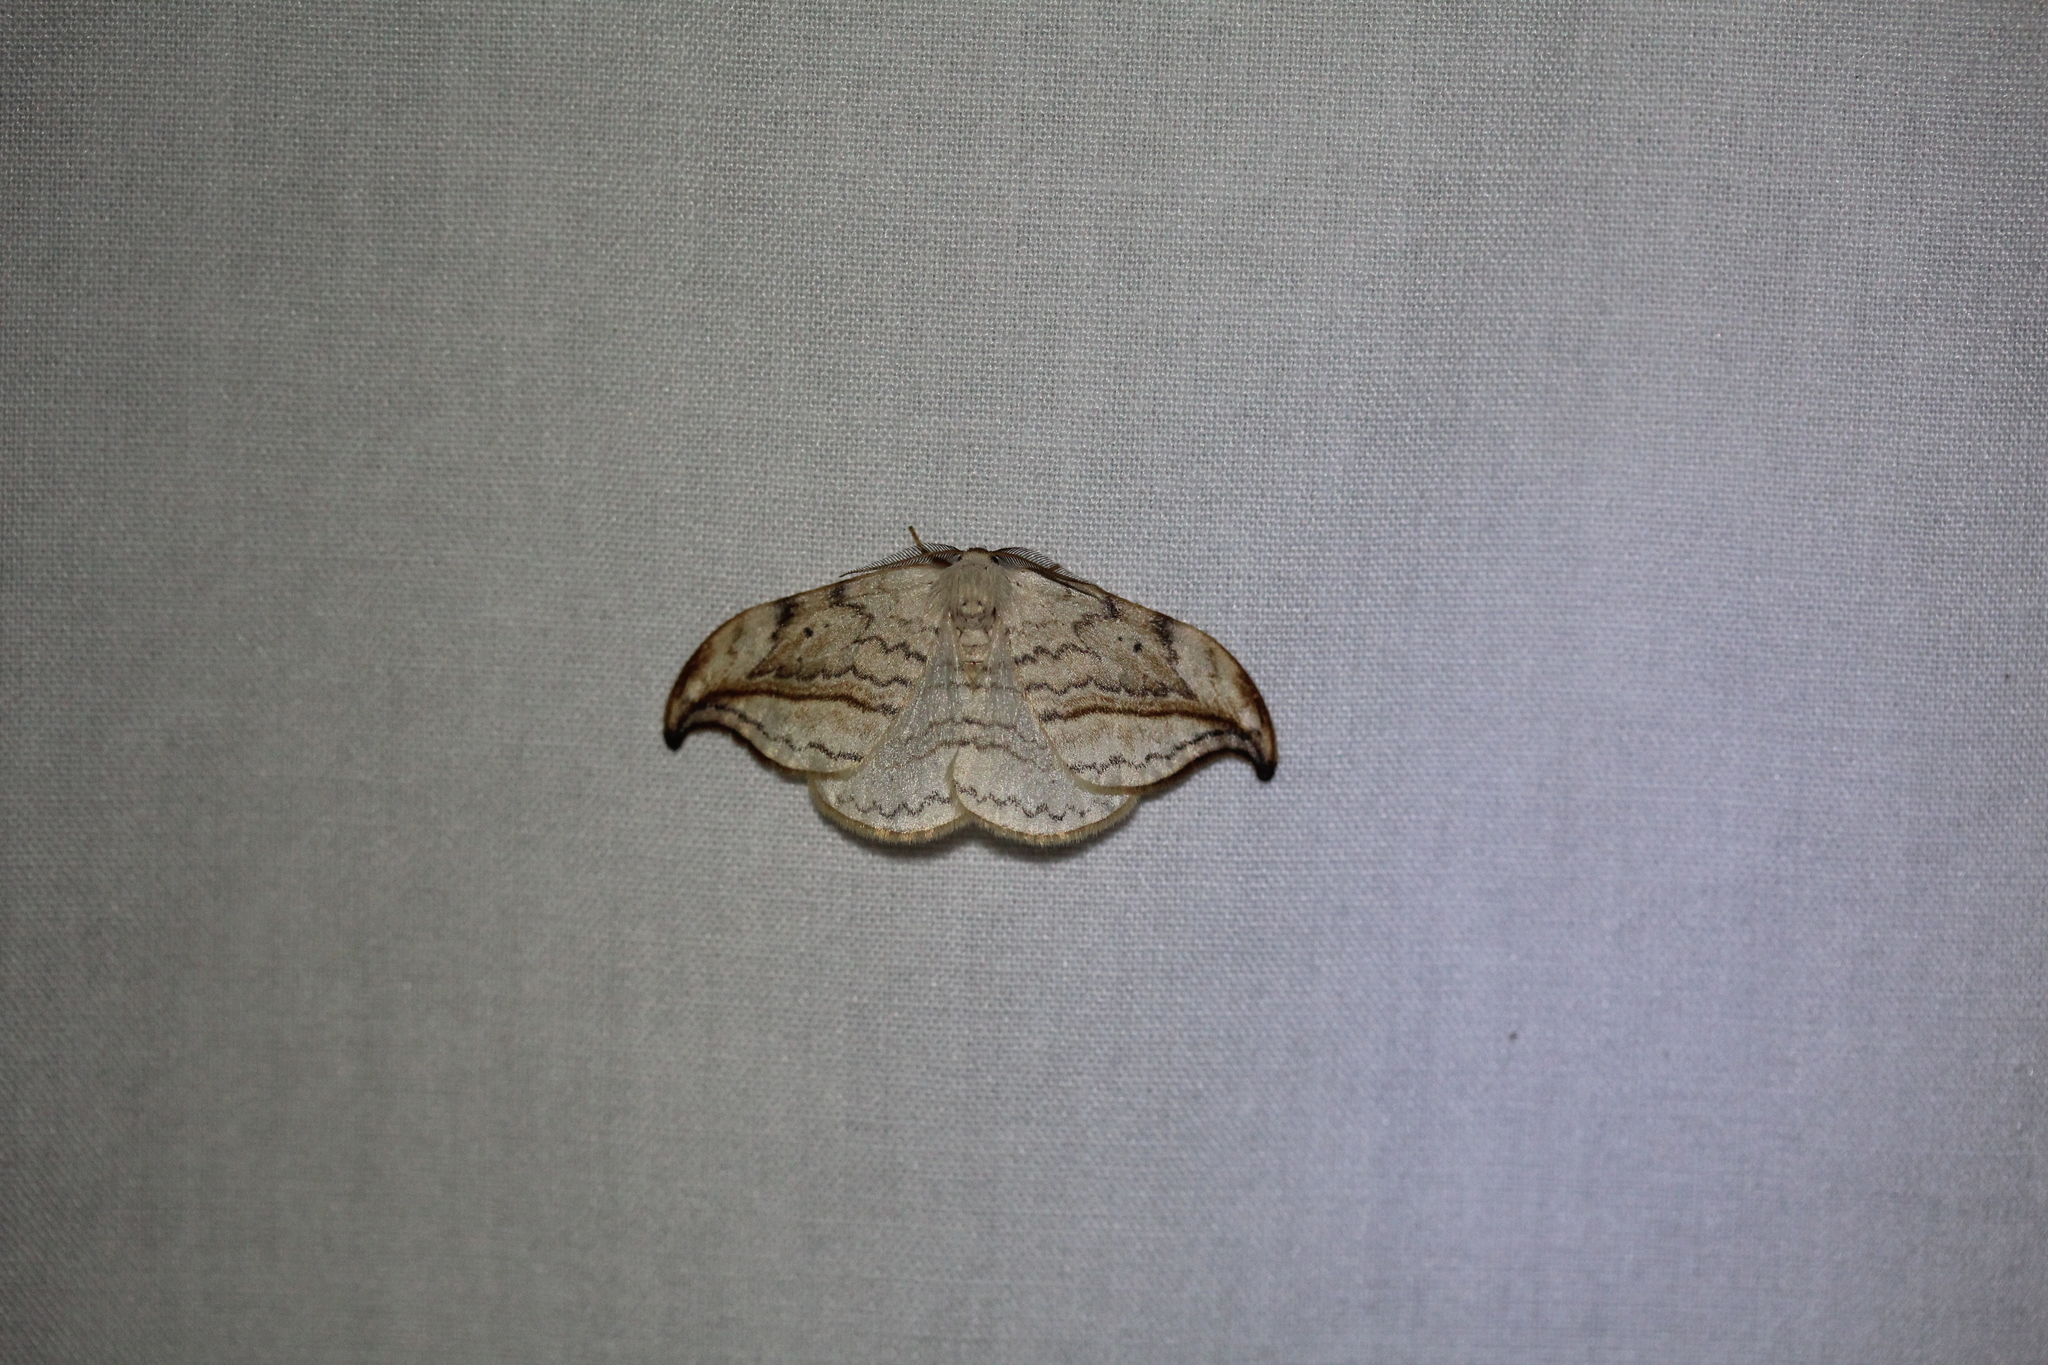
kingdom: Animalia
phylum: Arthropoda
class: Insecta
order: Lepidoptera
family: Drepanidae
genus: Drepana
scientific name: Drepana arcuata
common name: Arched hooktip moth
